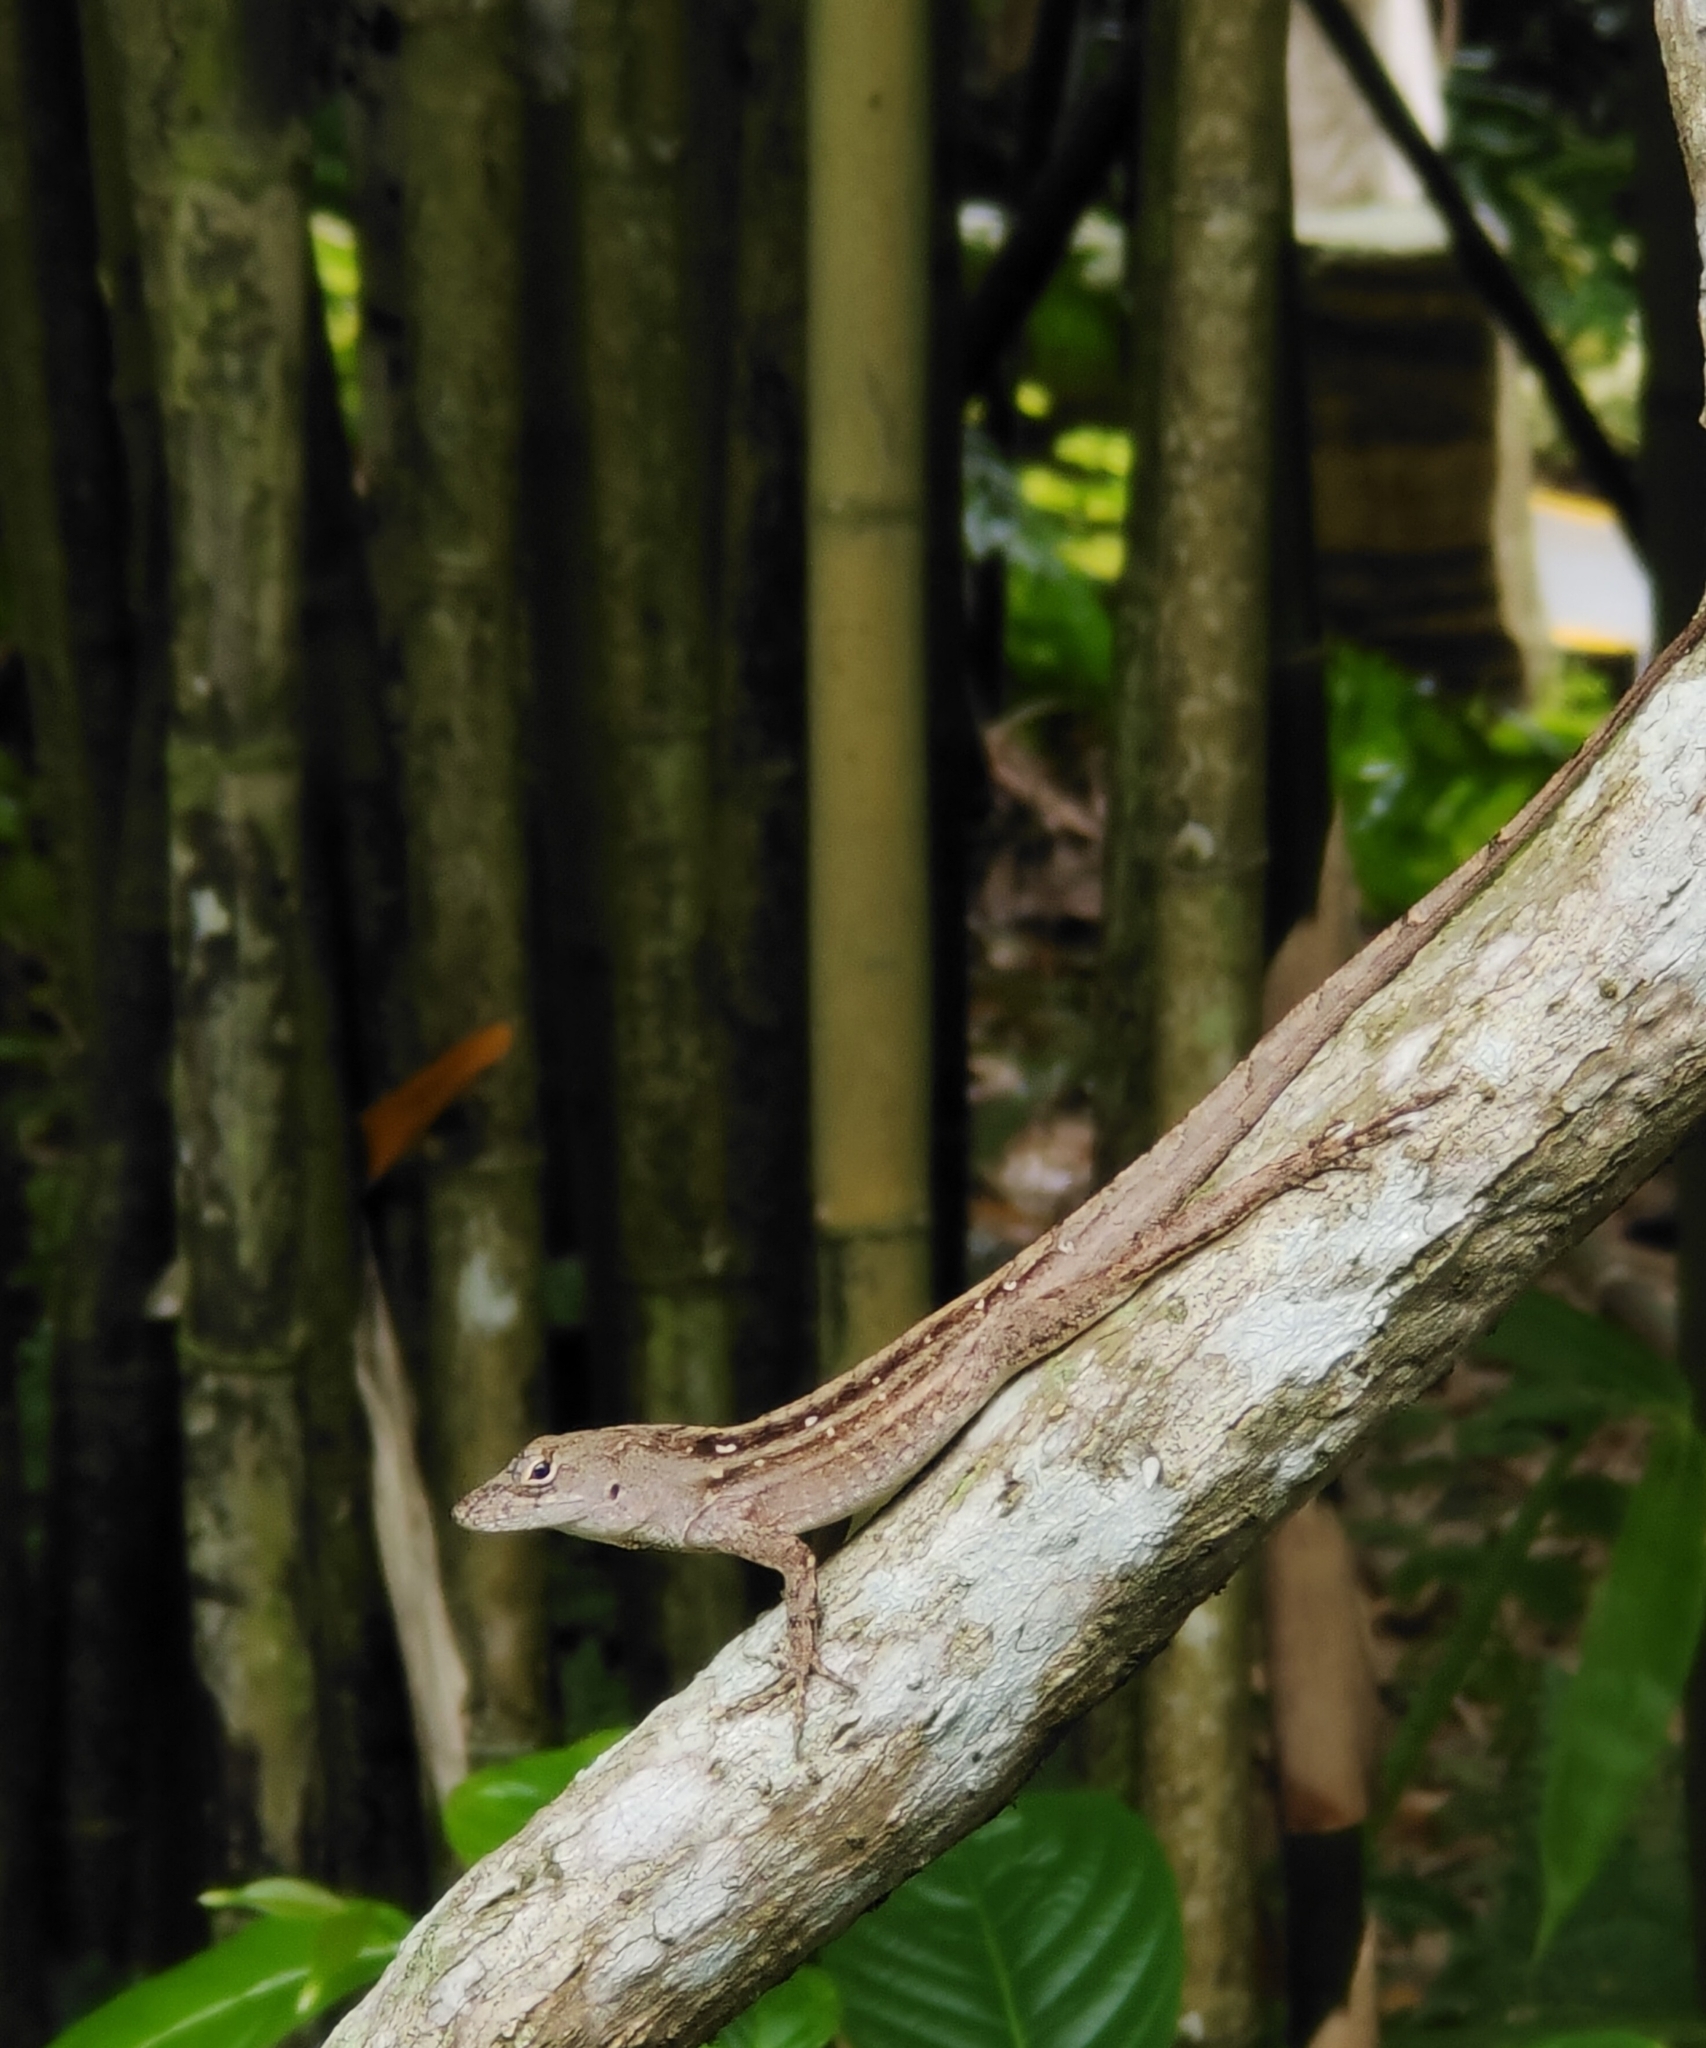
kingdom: Animalia
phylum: Chordata
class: Squamata
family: Dactyloidae
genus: Anolis
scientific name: Anolis sagrei
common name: Brown anole
